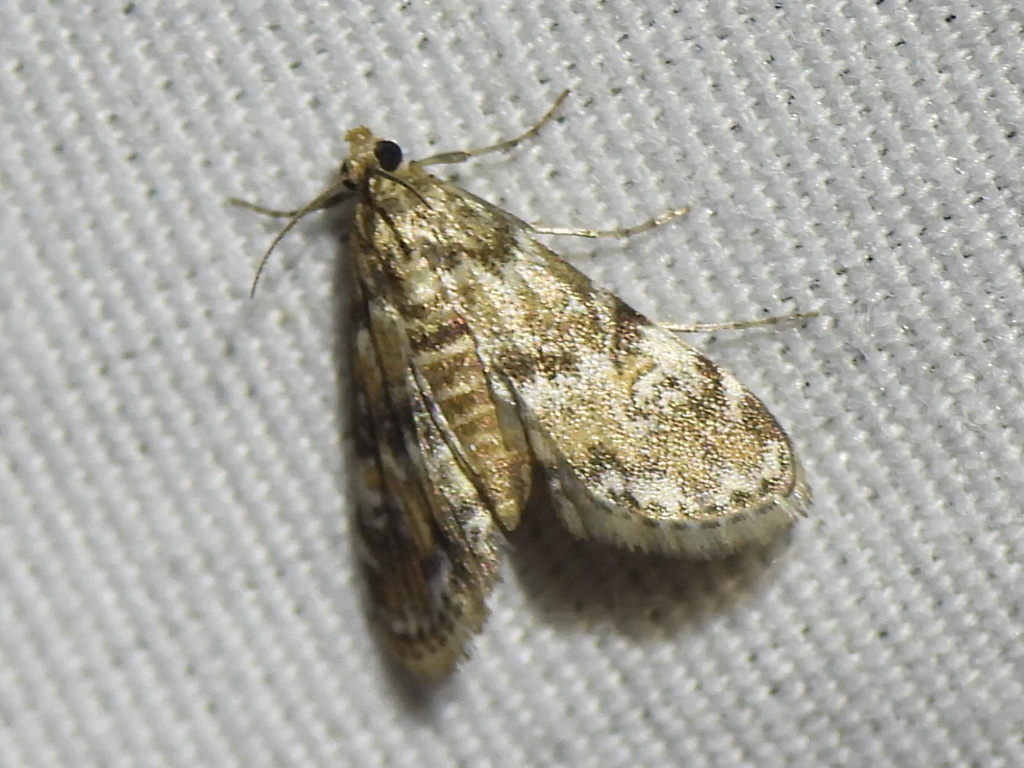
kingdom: Animalia
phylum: Arthropoda
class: Insecta
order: Lepidoptera
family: Crambidae
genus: Elophila
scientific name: Elophila obliteralis
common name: Waterlily leafcutter moth
